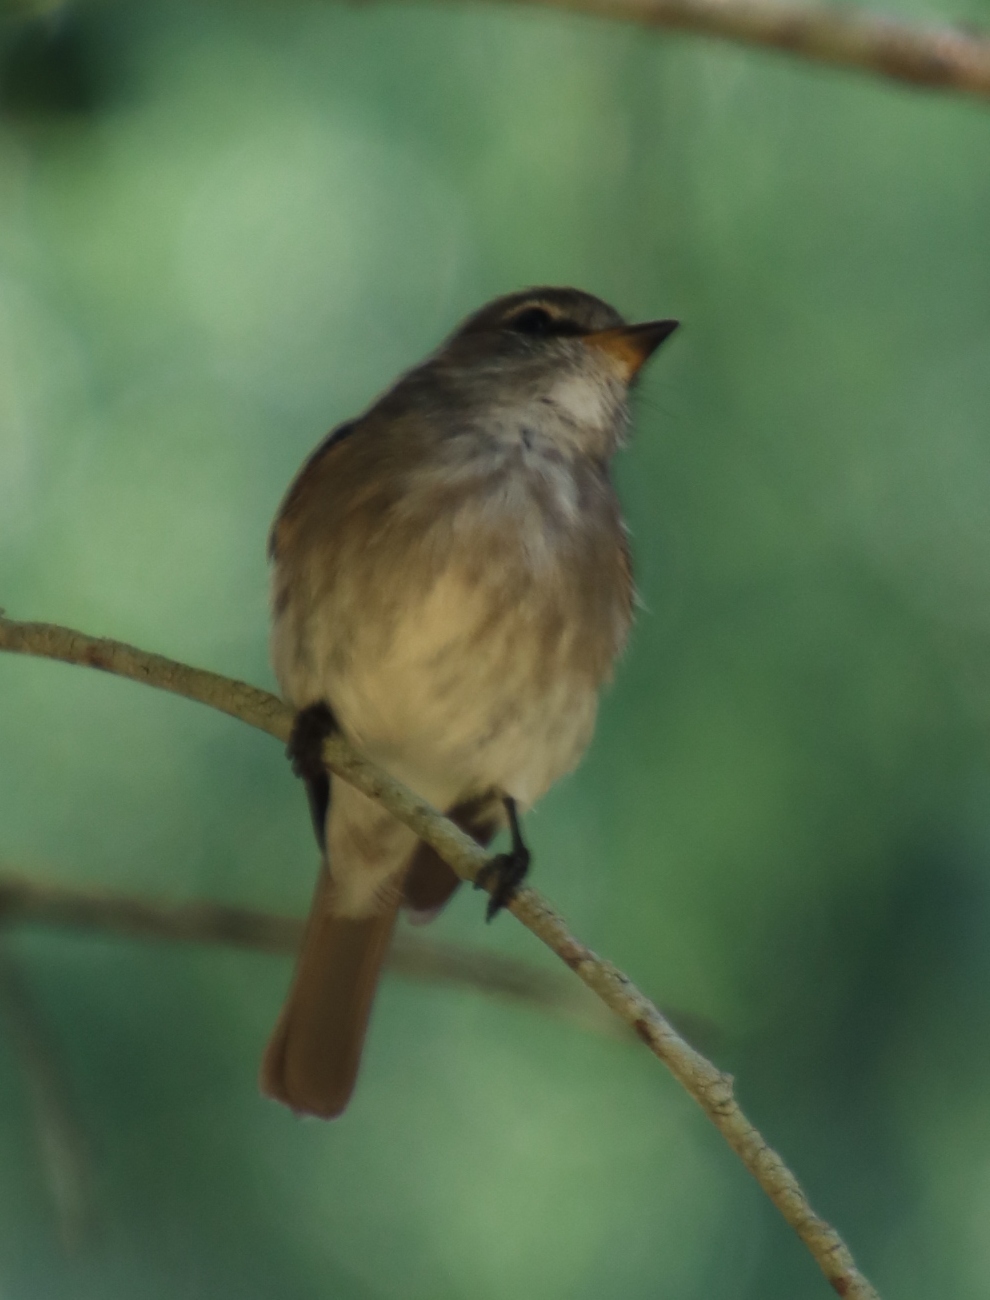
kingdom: Animalia
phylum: Chordata
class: Aves
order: Passeriformes
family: Muscicapidae
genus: Muscicapa
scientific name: Muscicapa adusta
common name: African dusky flycatcher
